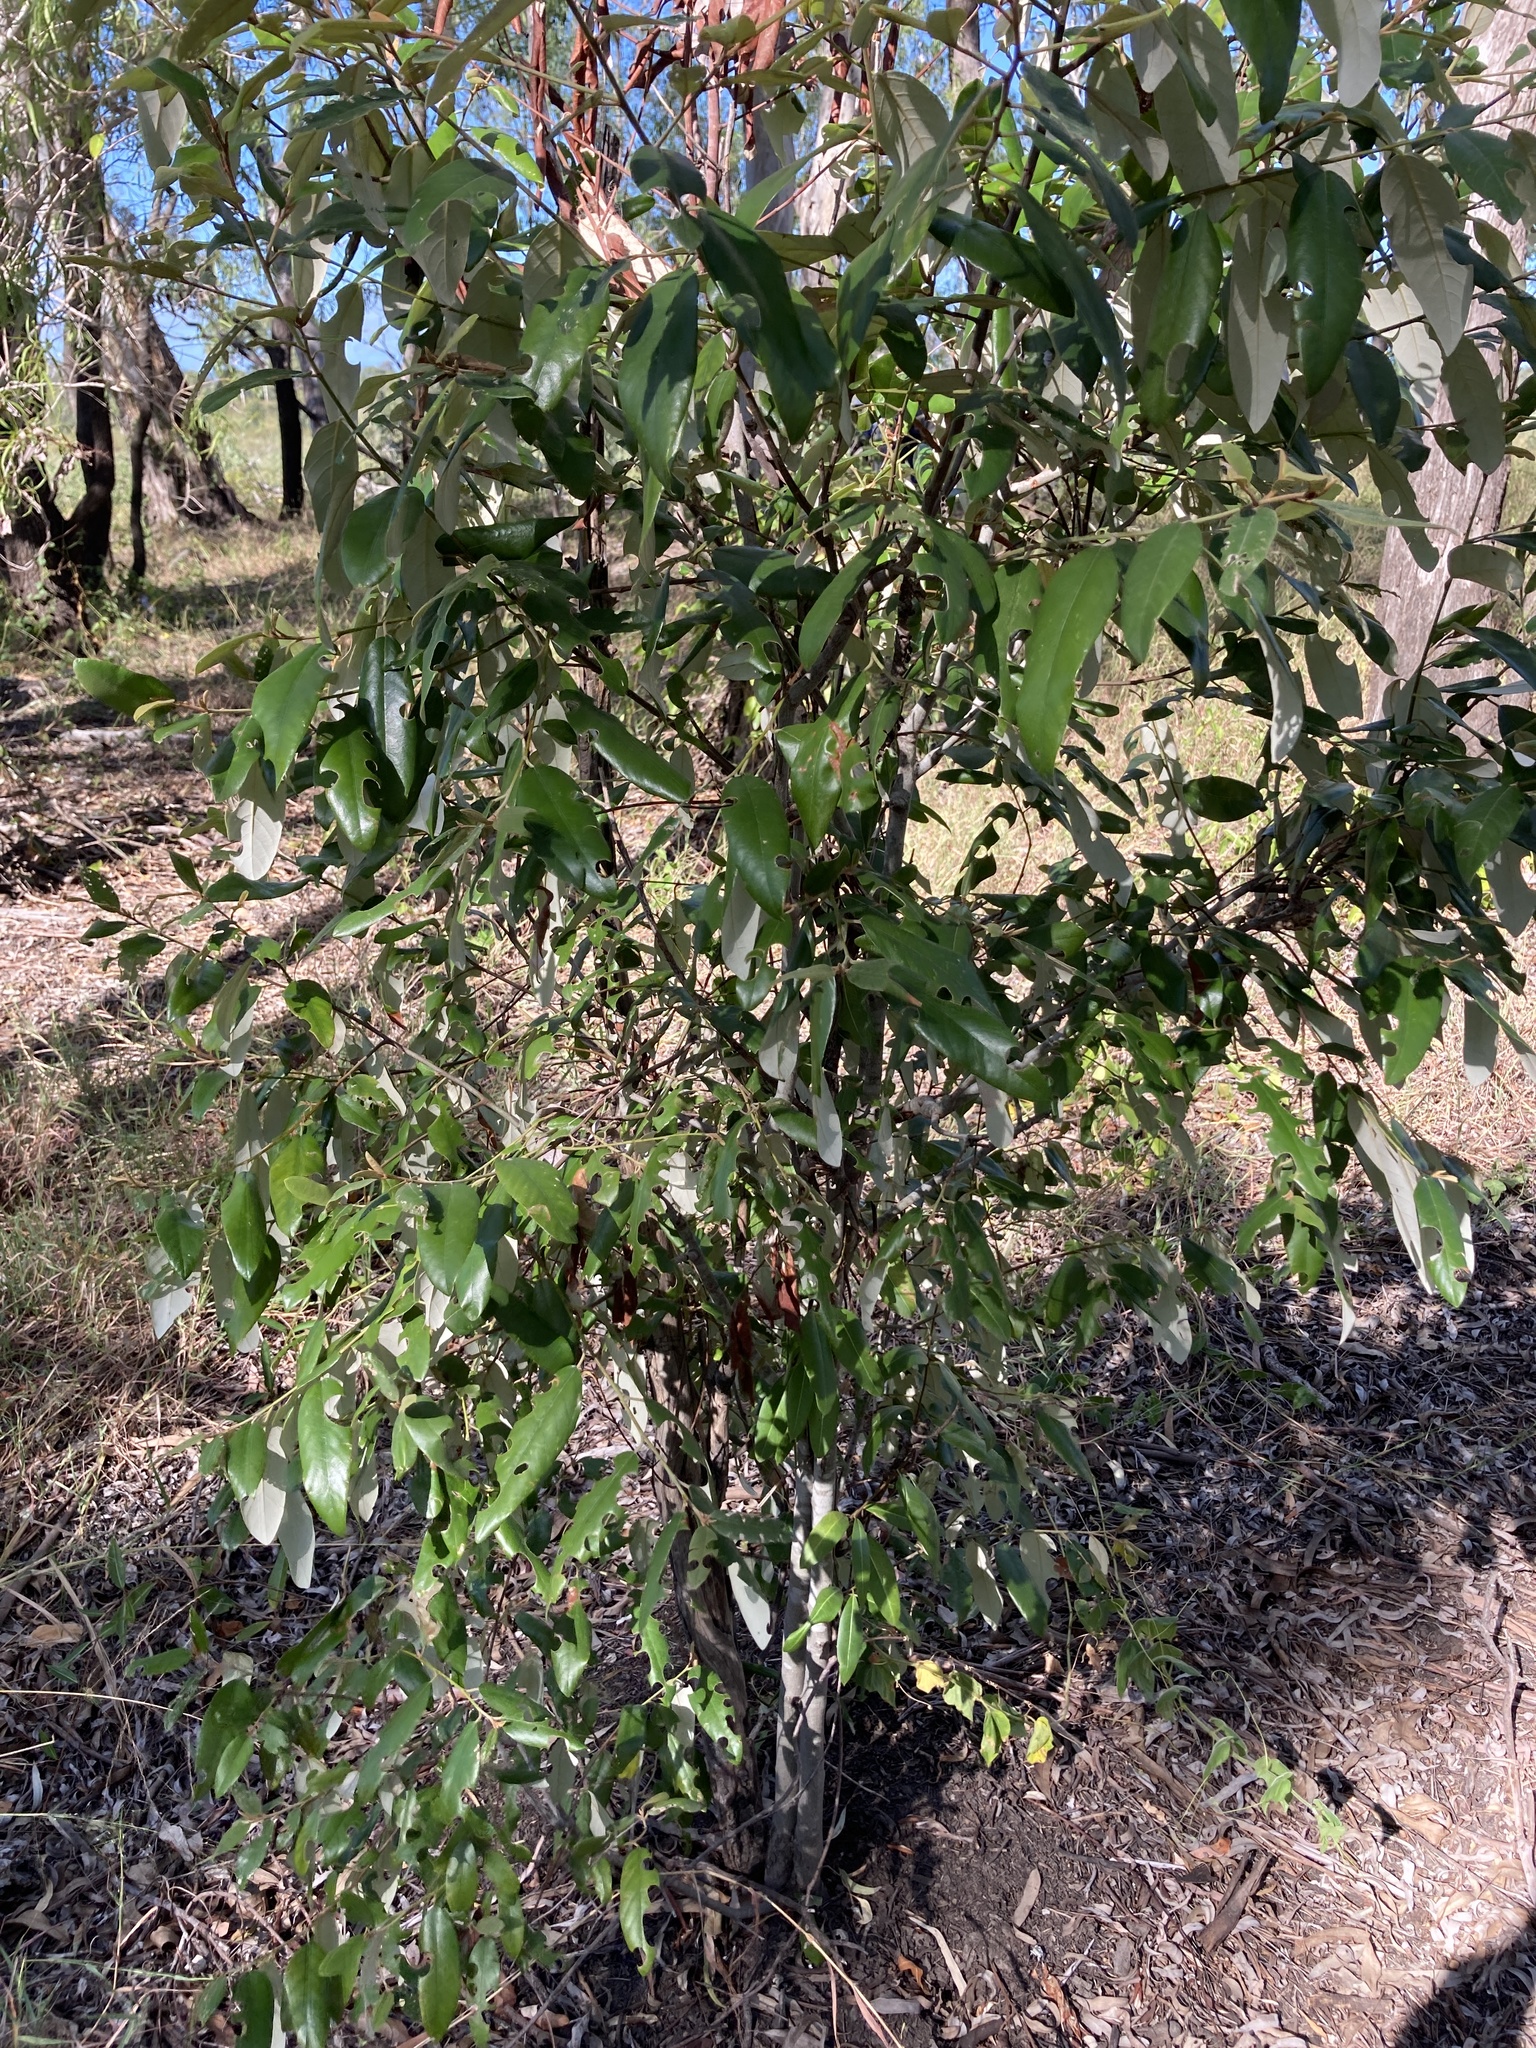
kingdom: Plantae
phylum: Tracheophyta
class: Magnoliopsida
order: Rosales
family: Rhamnaceae
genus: Alphitonia
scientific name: Alphitonia excelsa
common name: Red ash
